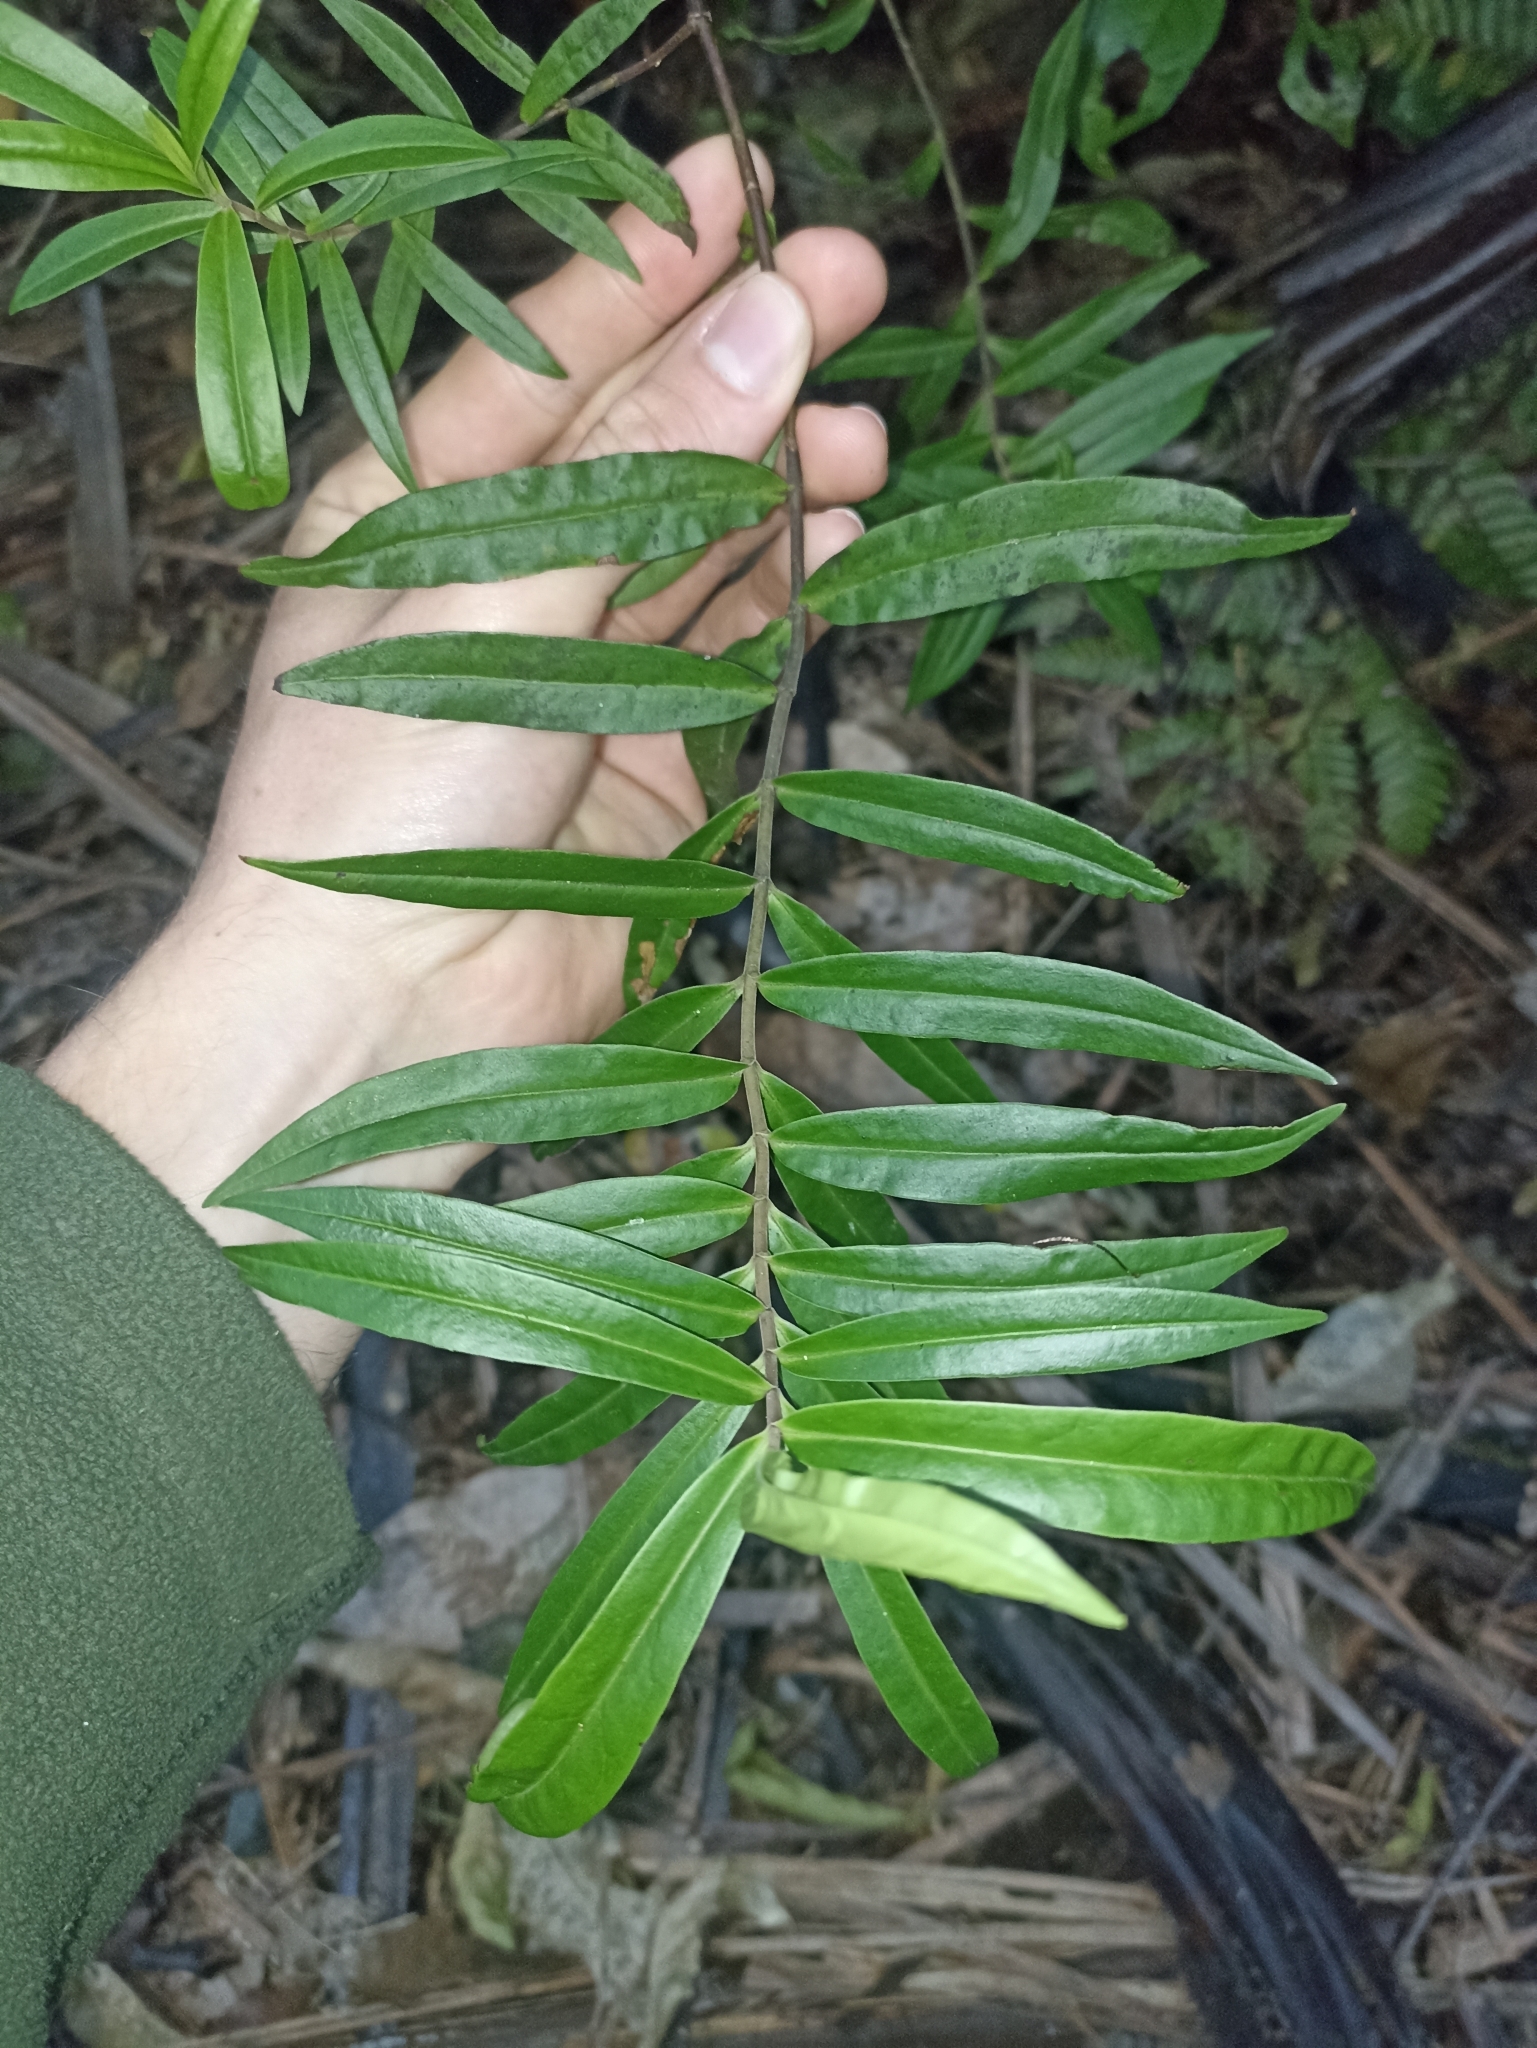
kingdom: Plantae
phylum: Tracheophyta
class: Magnoliopsida
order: Lamiales
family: Plantaginaceae
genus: Veronica
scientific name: Veronica stricta
